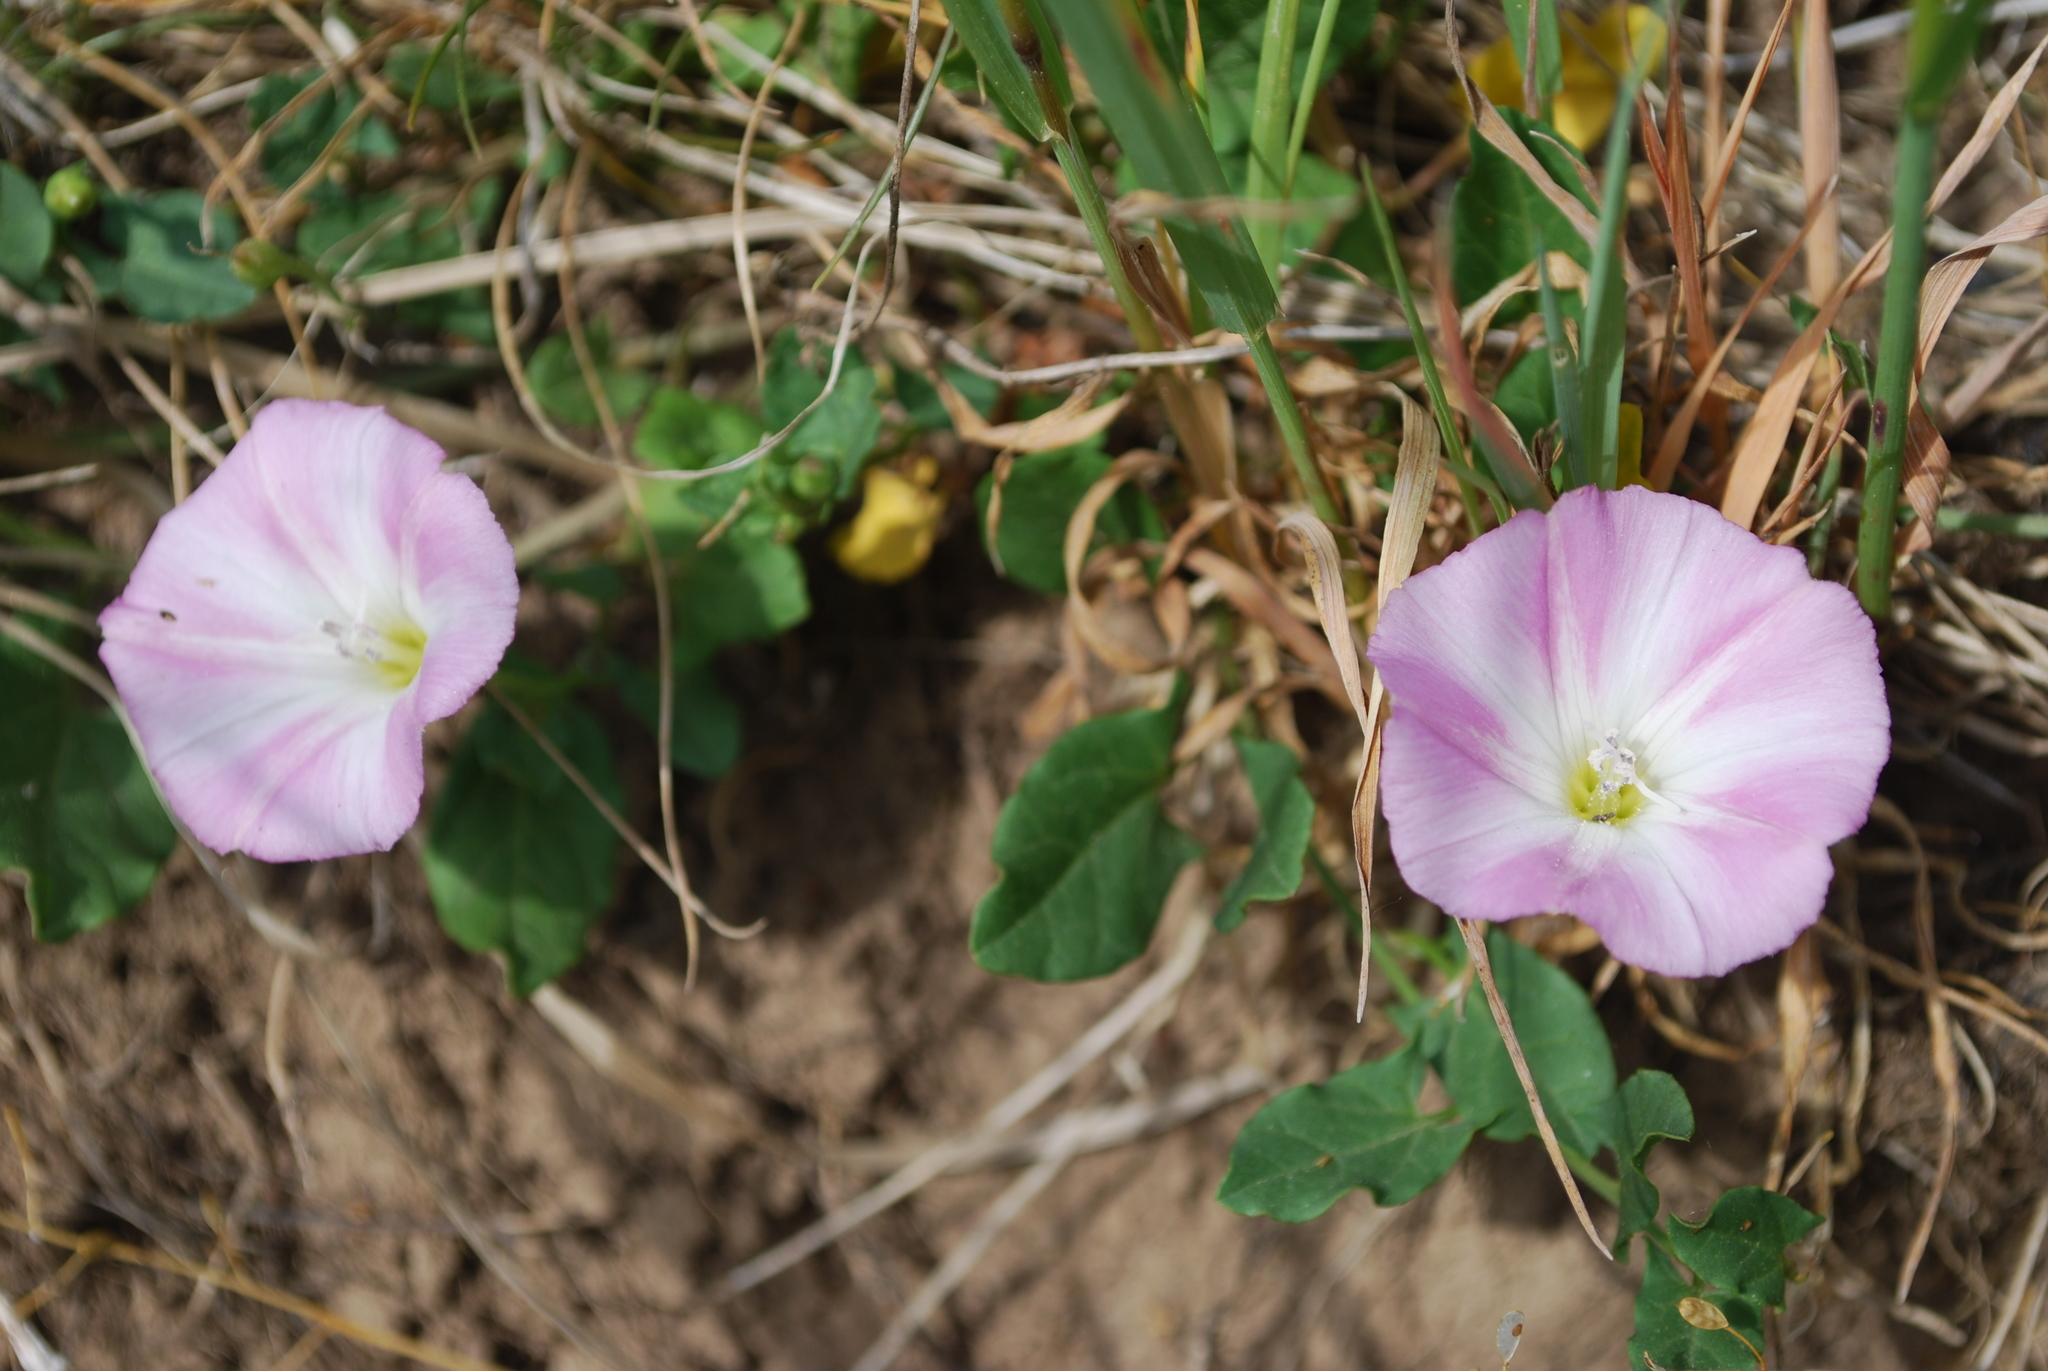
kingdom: Plantae
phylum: Tracheophyta
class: Magnoliopsida
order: Solanales
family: Convolvulaceae
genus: Convolvulus
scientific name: Convolvulus arvensis
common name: Field bindweed
